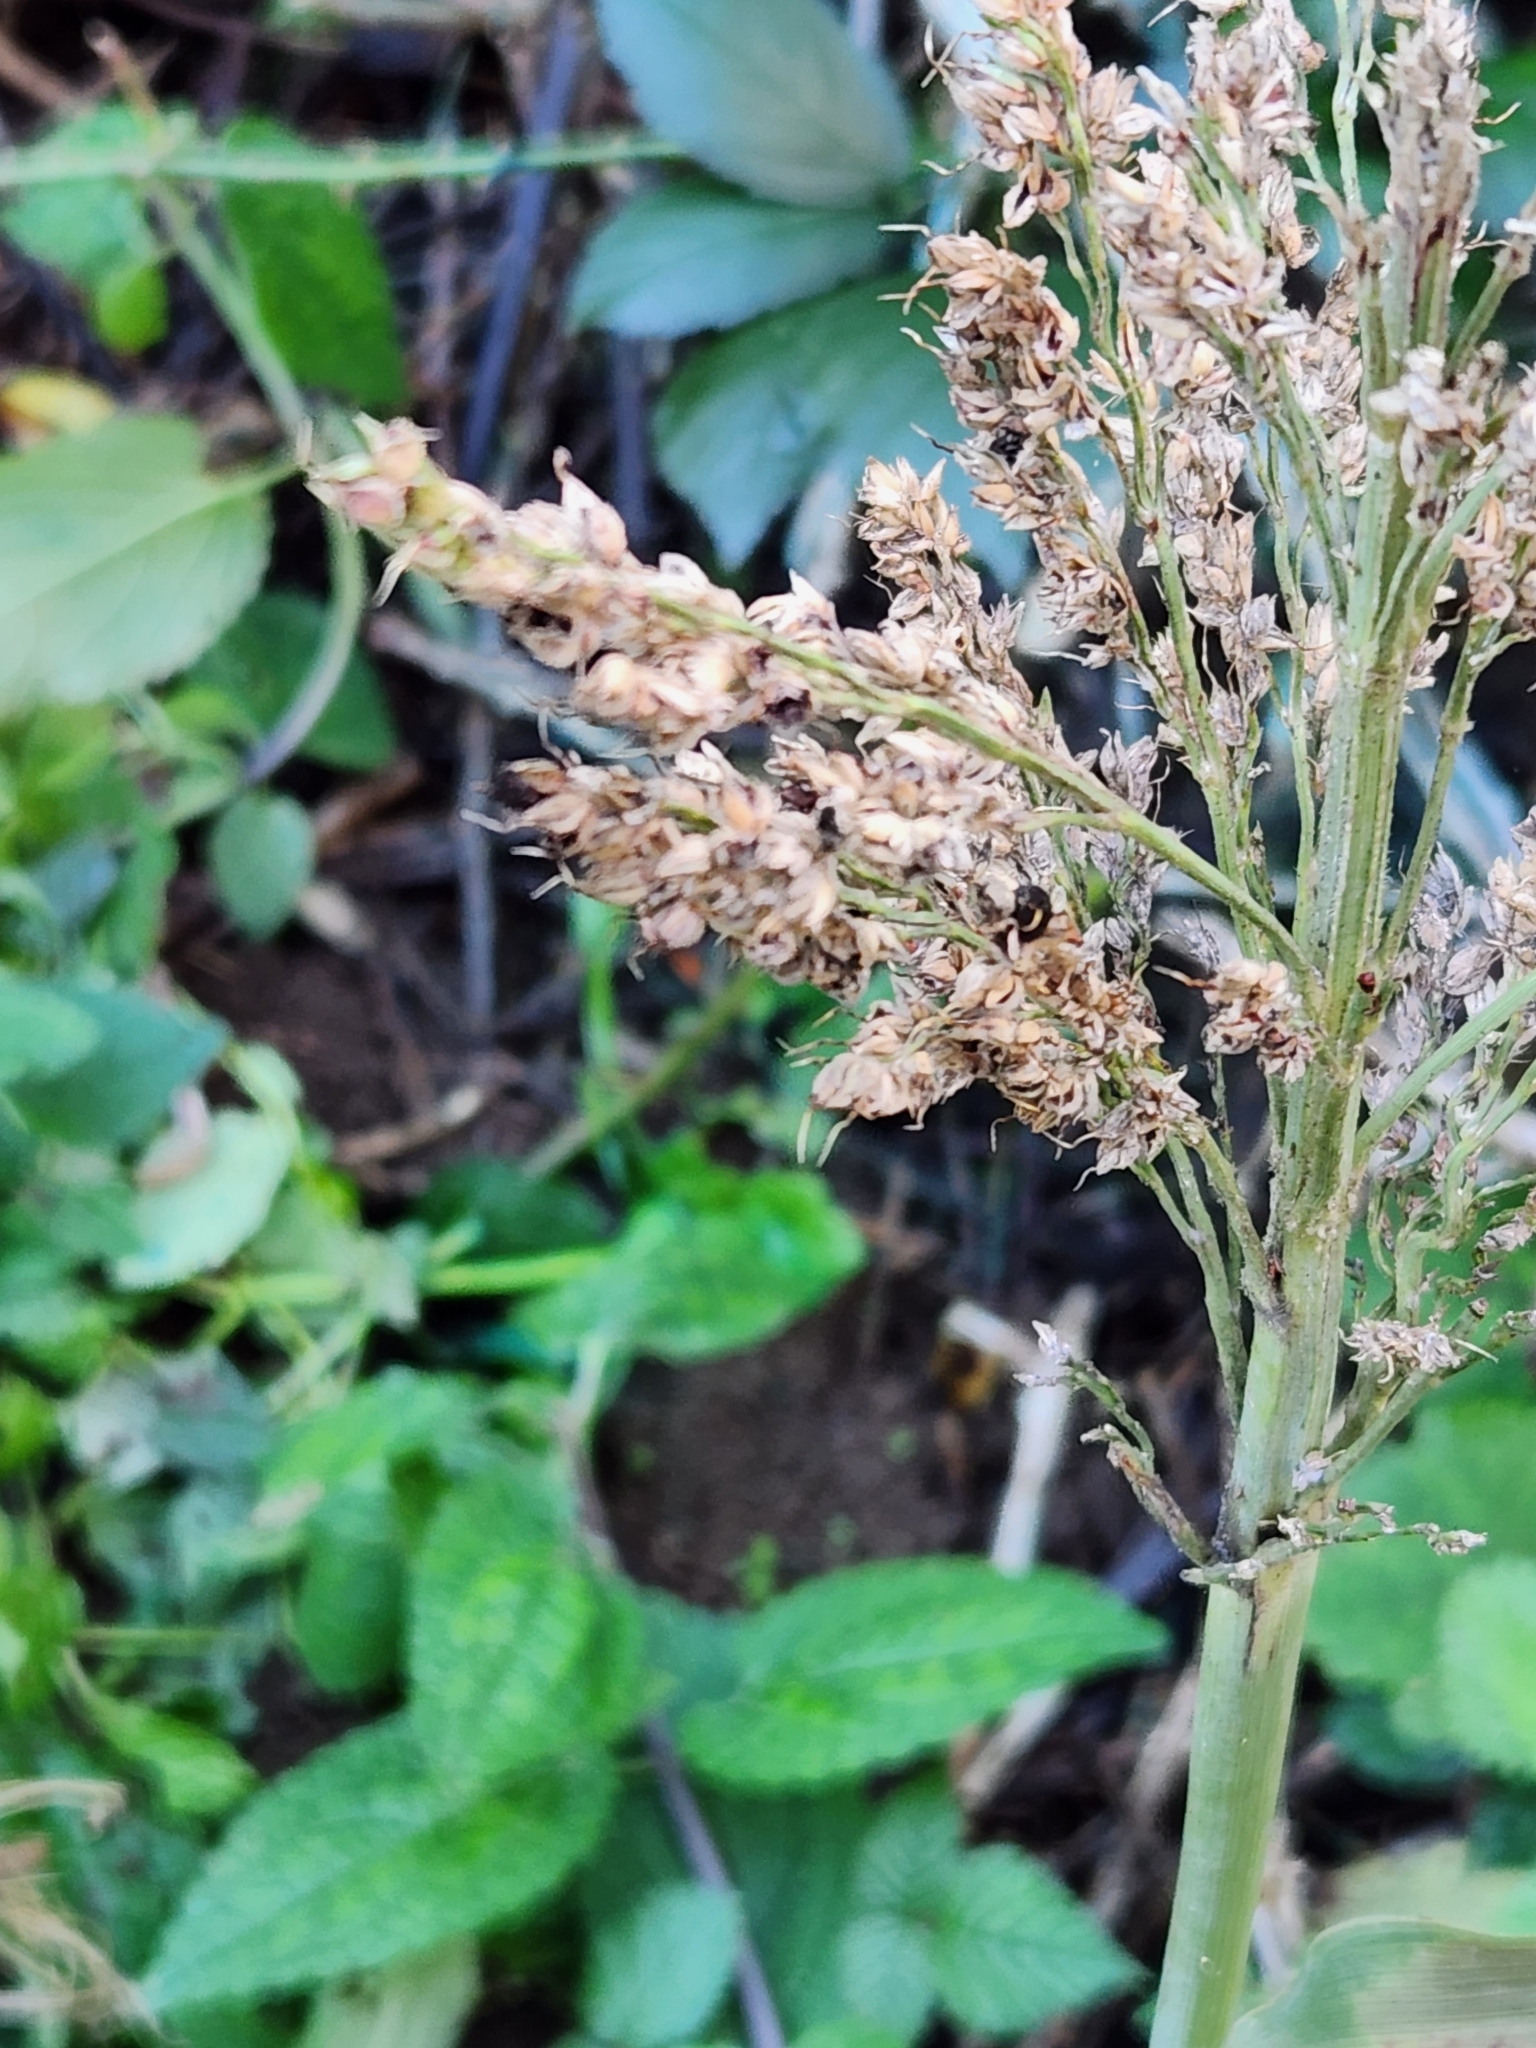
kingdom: Plantae
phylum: Tracheophyta
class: Liliopsida
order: Poales
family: Poaceae
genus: Sorghum
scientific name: Sorghum bicolor
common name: Sorghum
